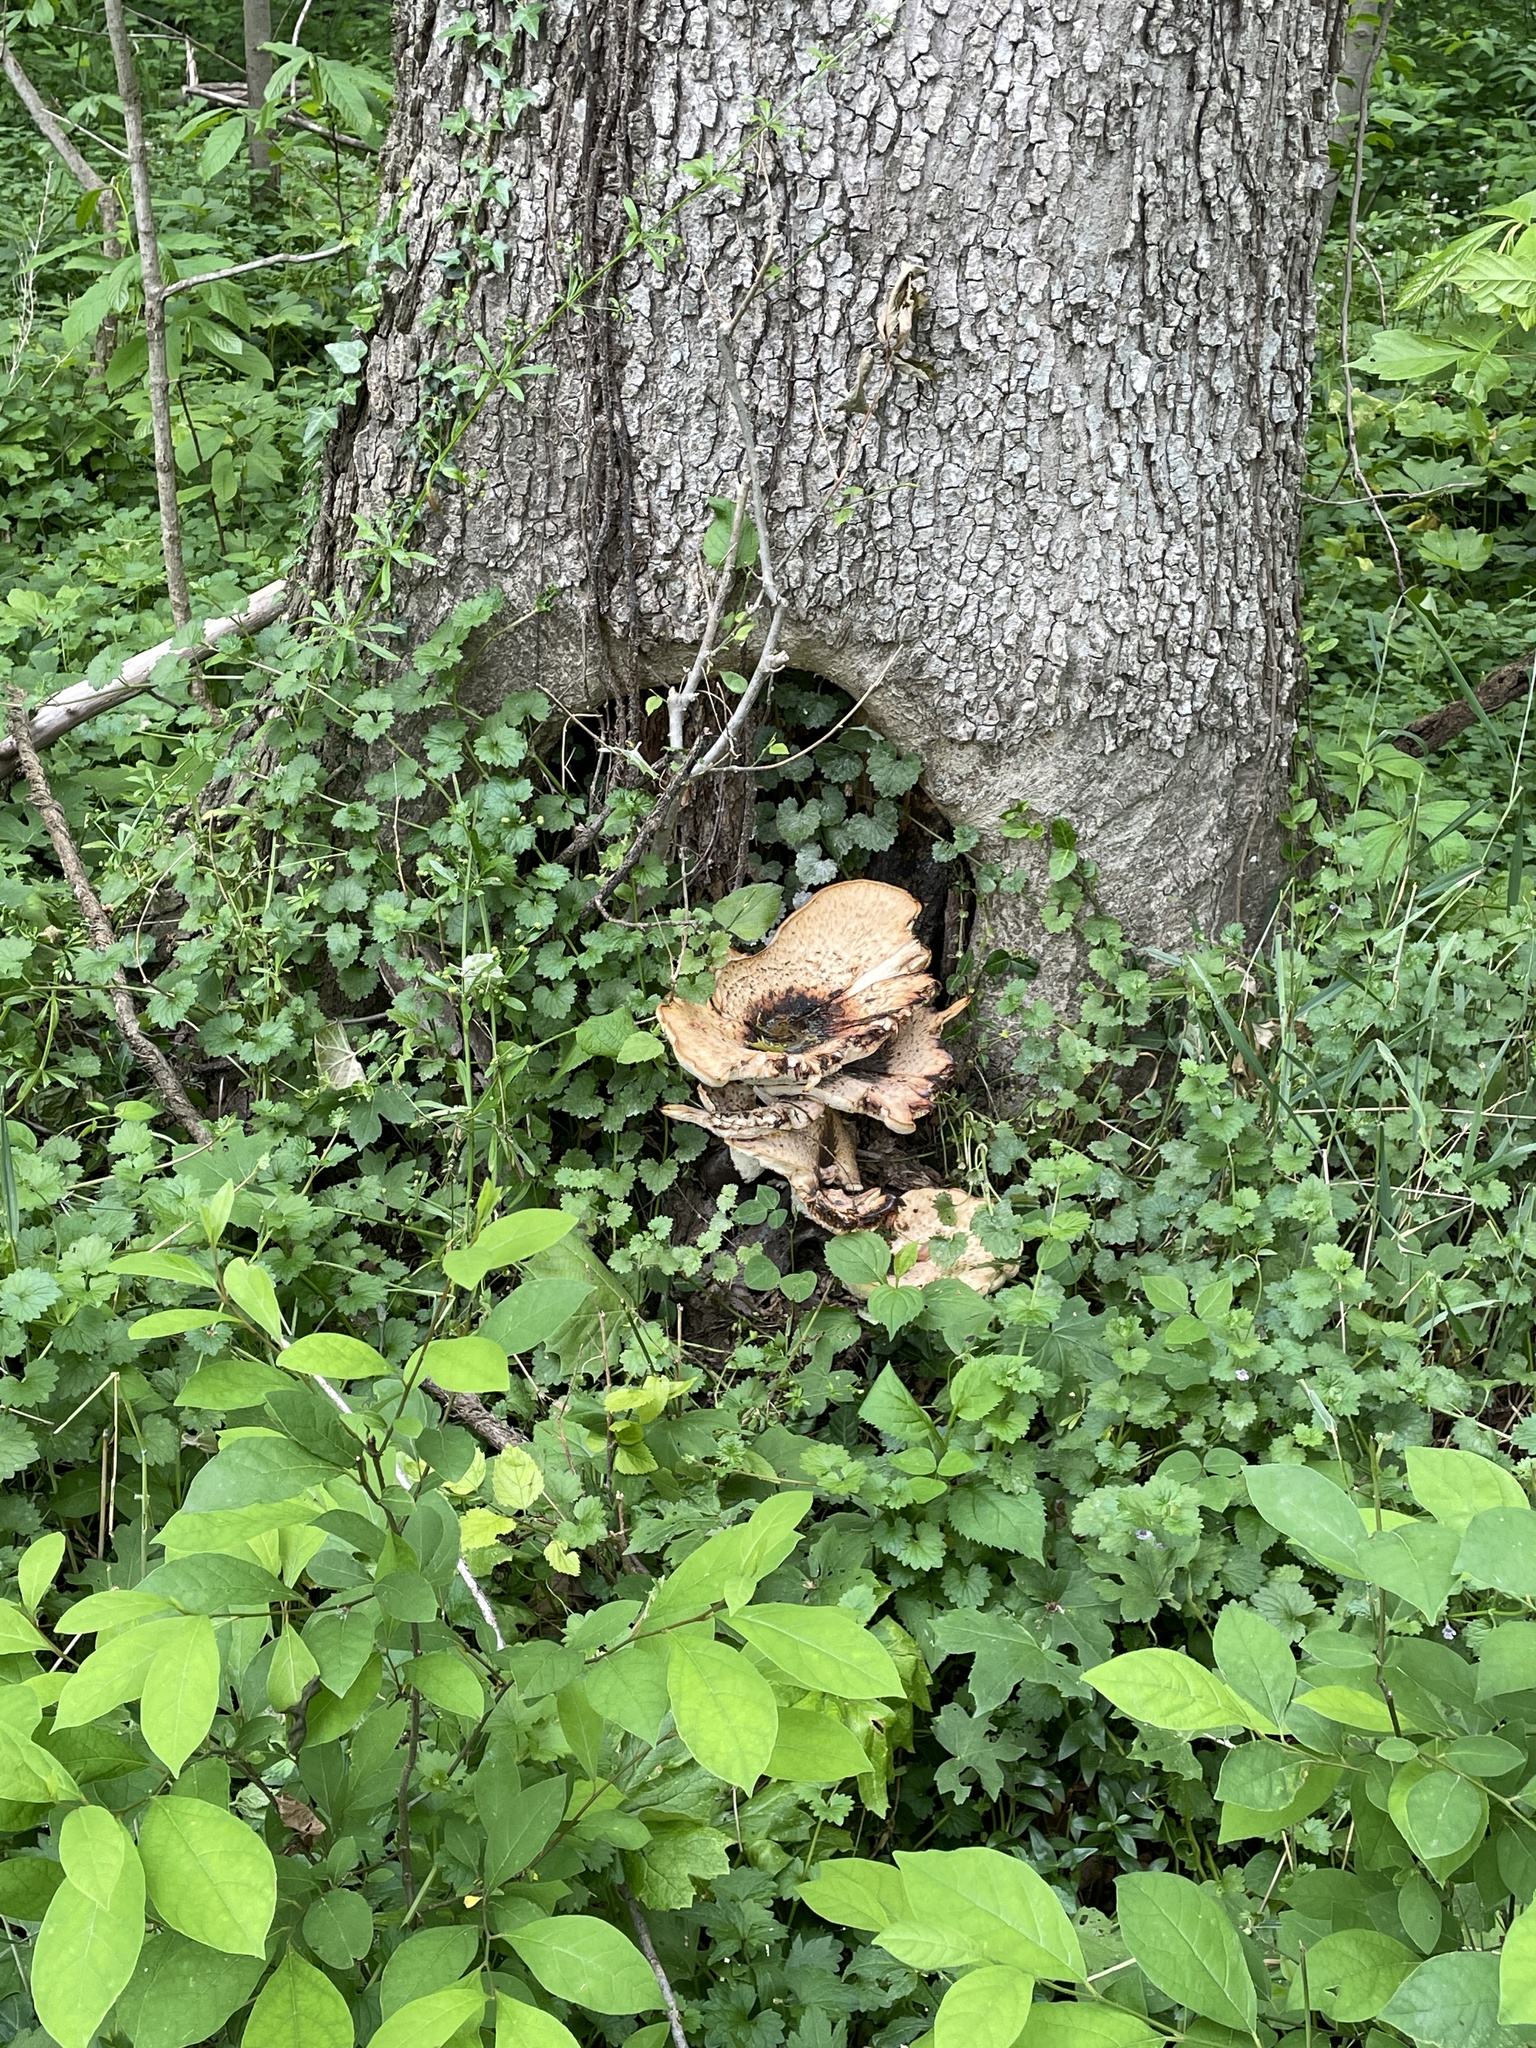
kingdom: Fungi
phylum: Basidiomycota
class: Agaricomycetes
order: Polyporales
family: Polyporaceae
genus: Cerioporus
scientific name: Cerioporus squamosus
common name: Dryad's saddle
